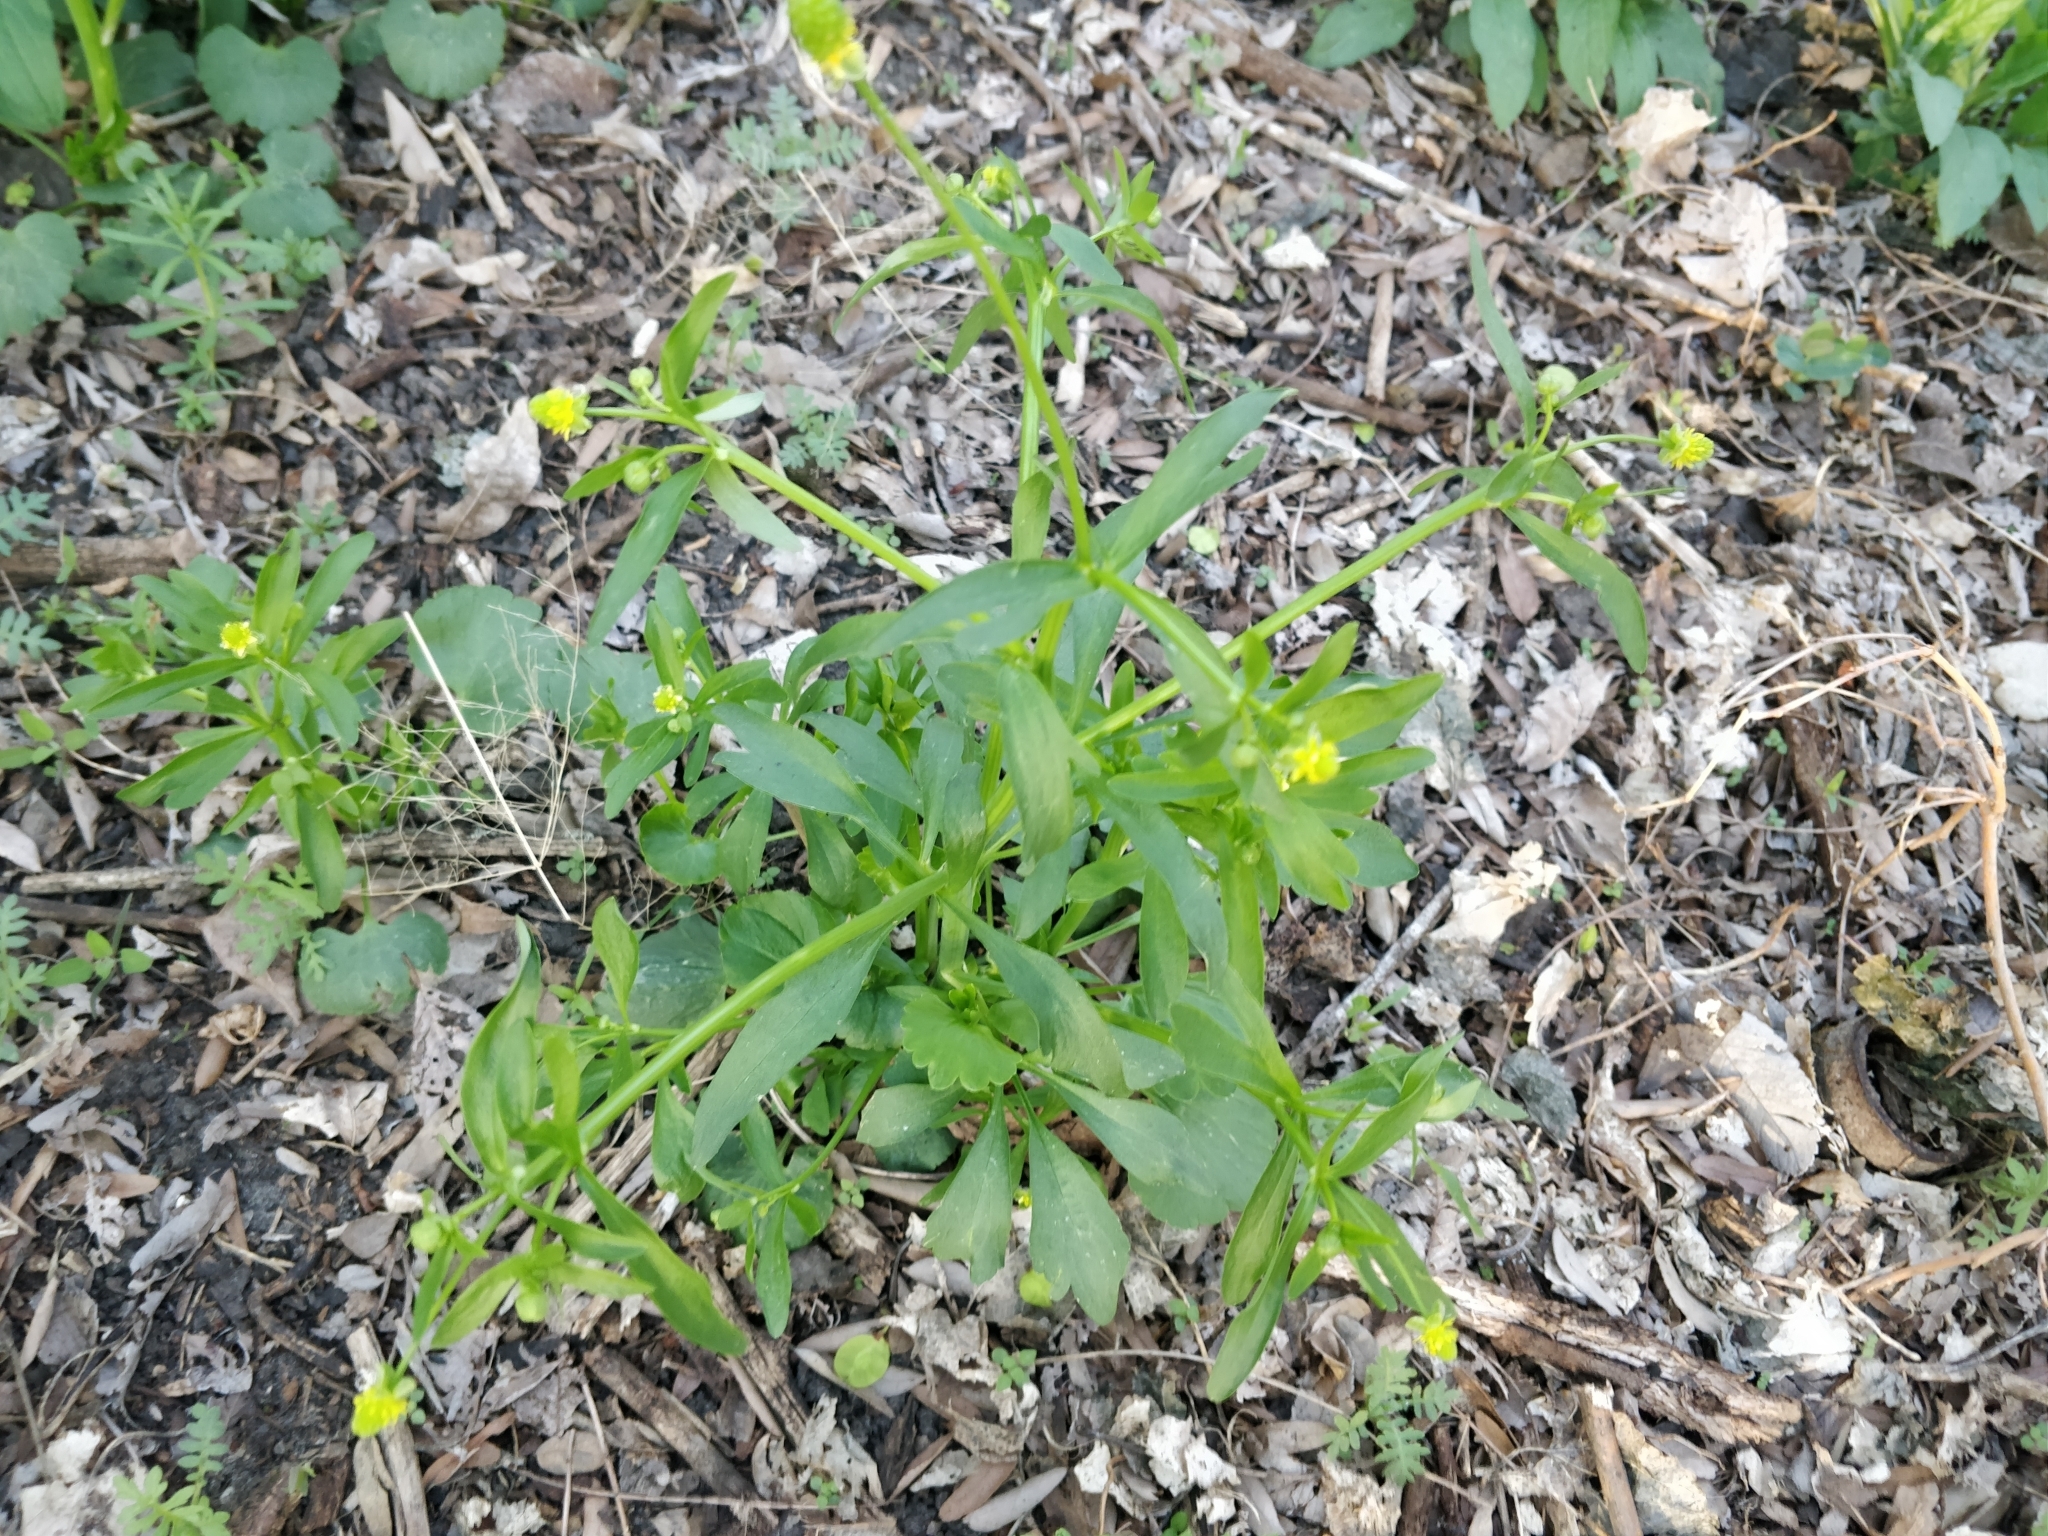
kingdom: Plantae
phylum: Tracheophyta
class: Magnoliopsida
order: Ranunculales
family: Ranunculaceae
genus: Ranunculus
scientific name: Ranunculus abortivus
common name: Early wood buttercup
